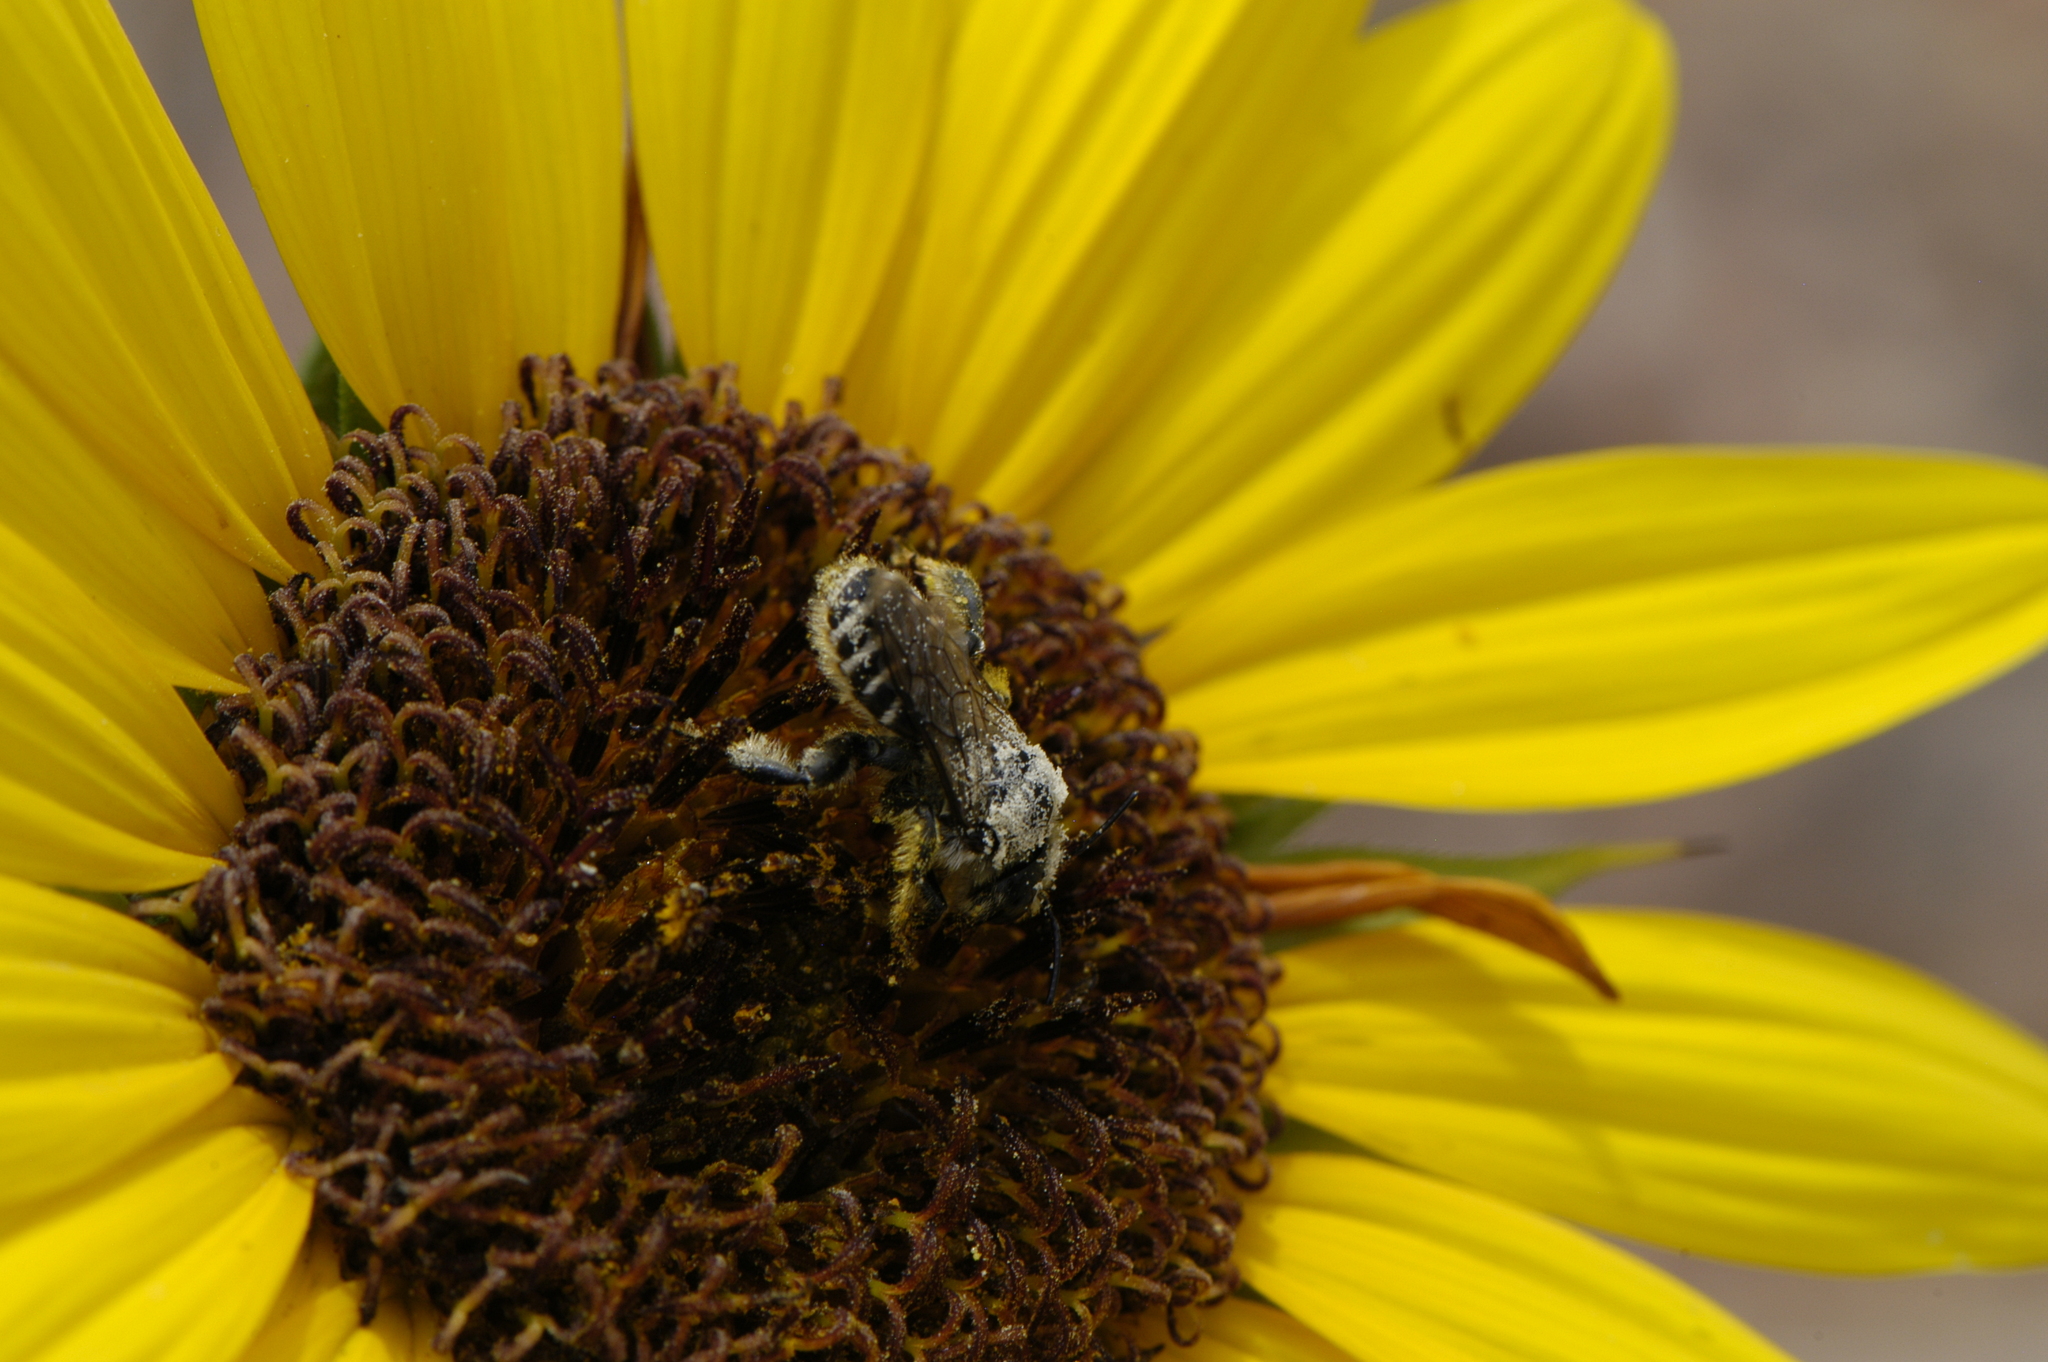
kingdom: Animalia
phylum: Arthropoda
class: Insecta
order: Hymenoptera
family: Megachilidae
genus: Lithurgopsis
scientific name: Lithurgopsis apicalis
